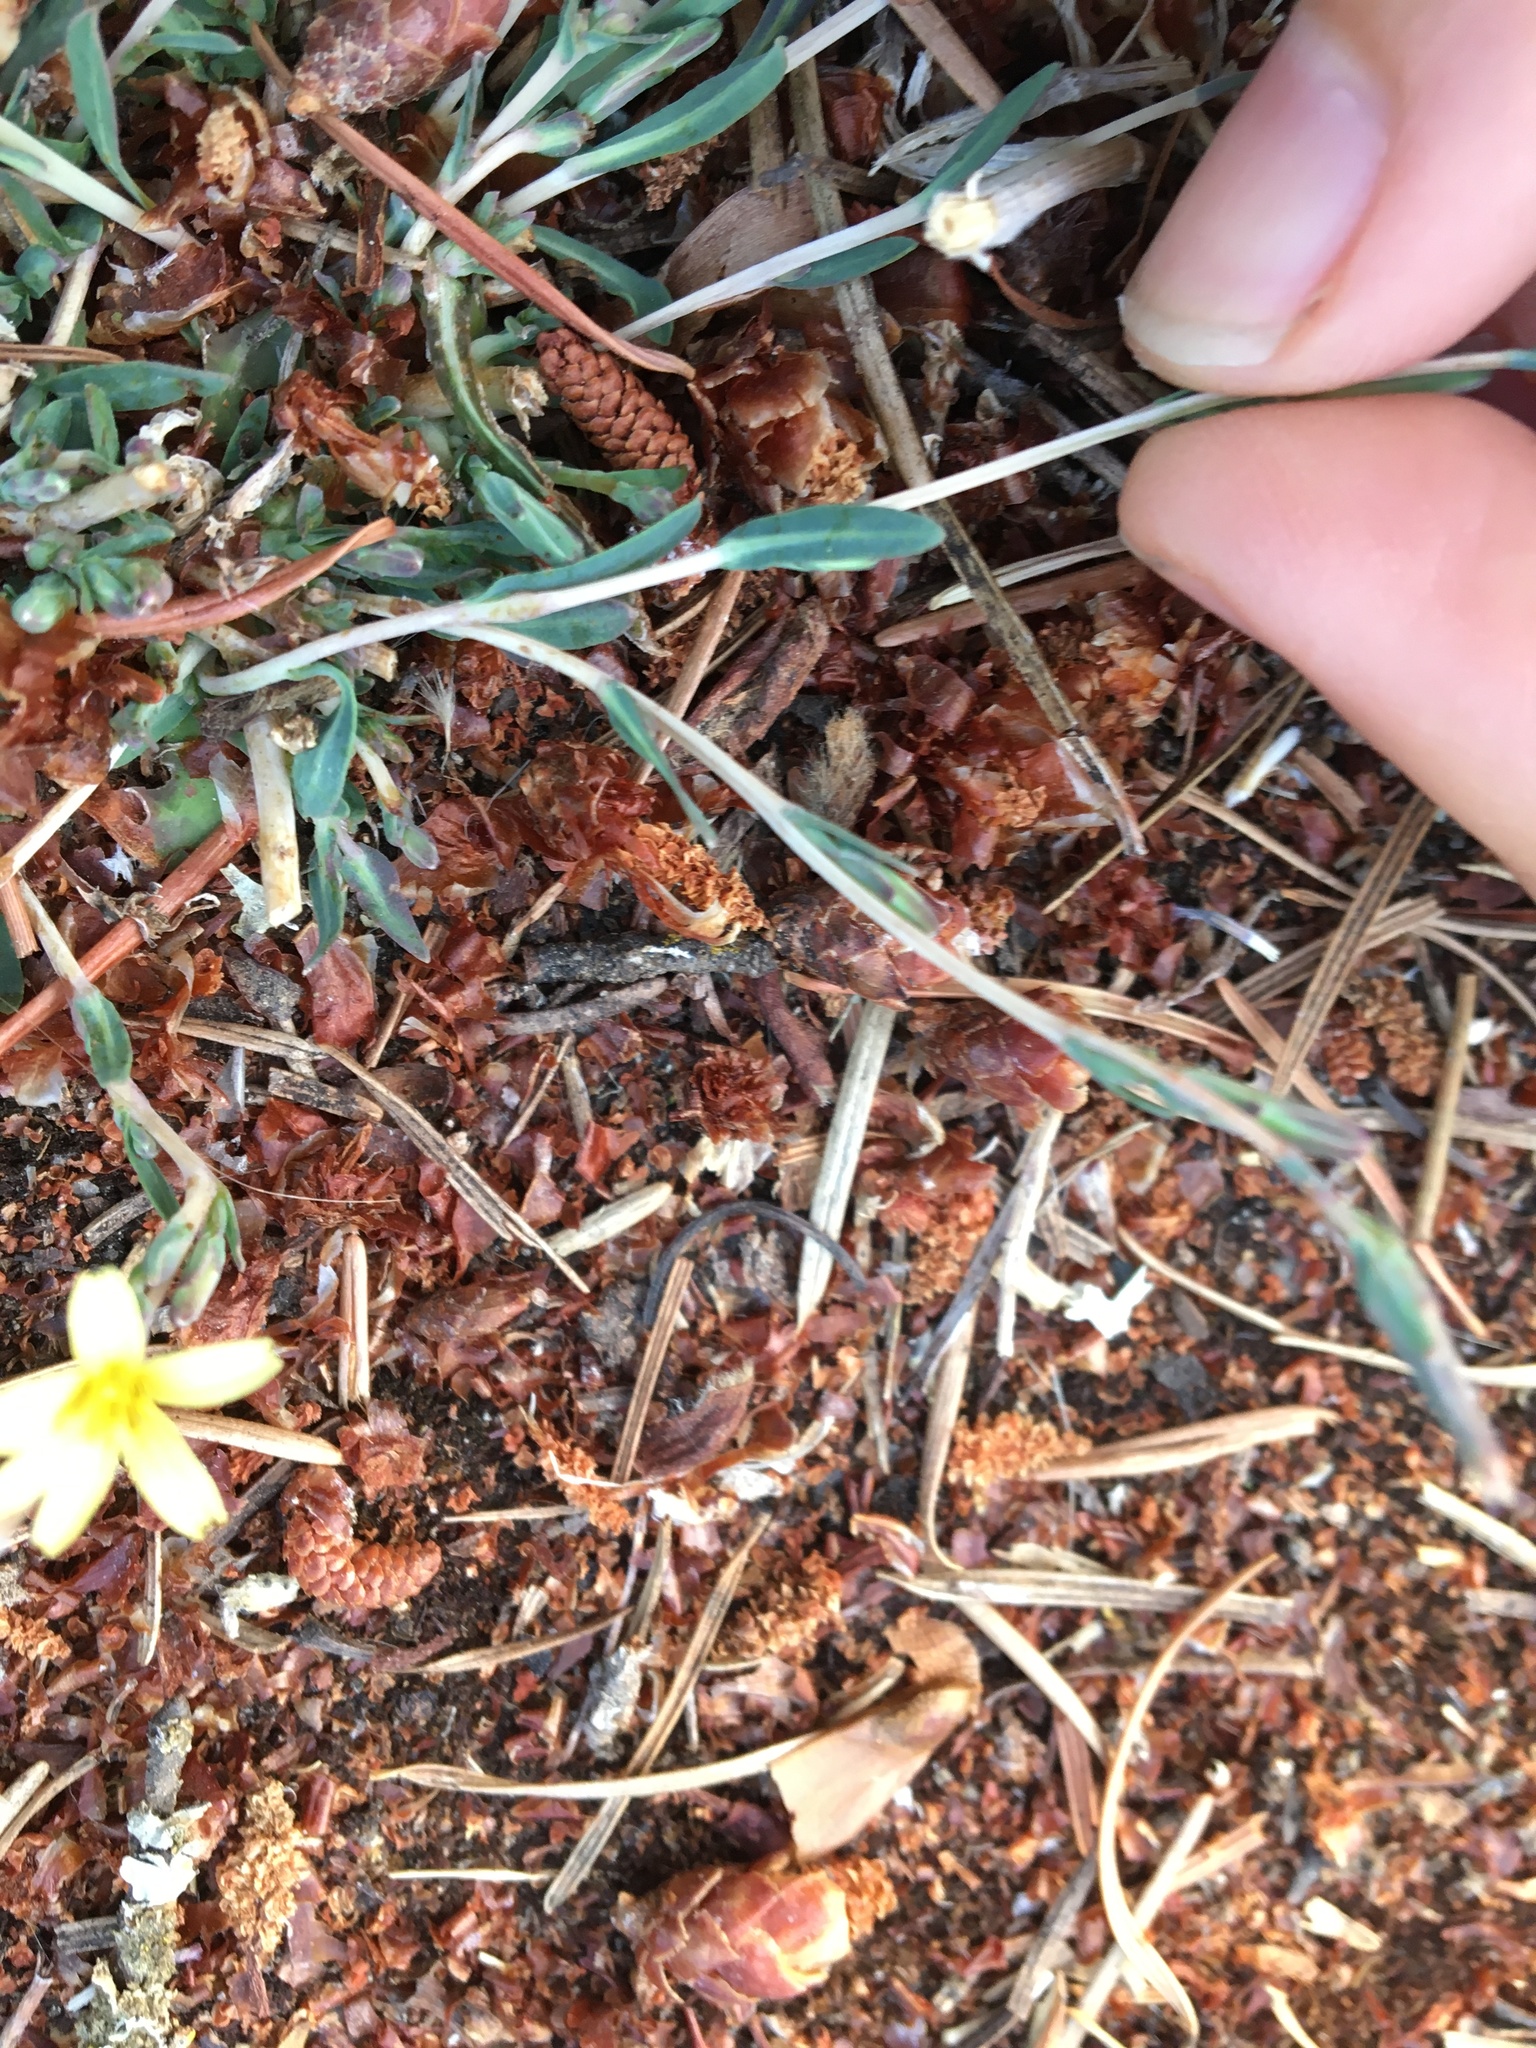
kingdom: Plantae
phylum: Tracheophyta
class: Magnoliopsida
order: Asterales
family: Asteraceae
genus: Lactuca
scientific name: Lactuca saligna
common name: Wild lettuce
